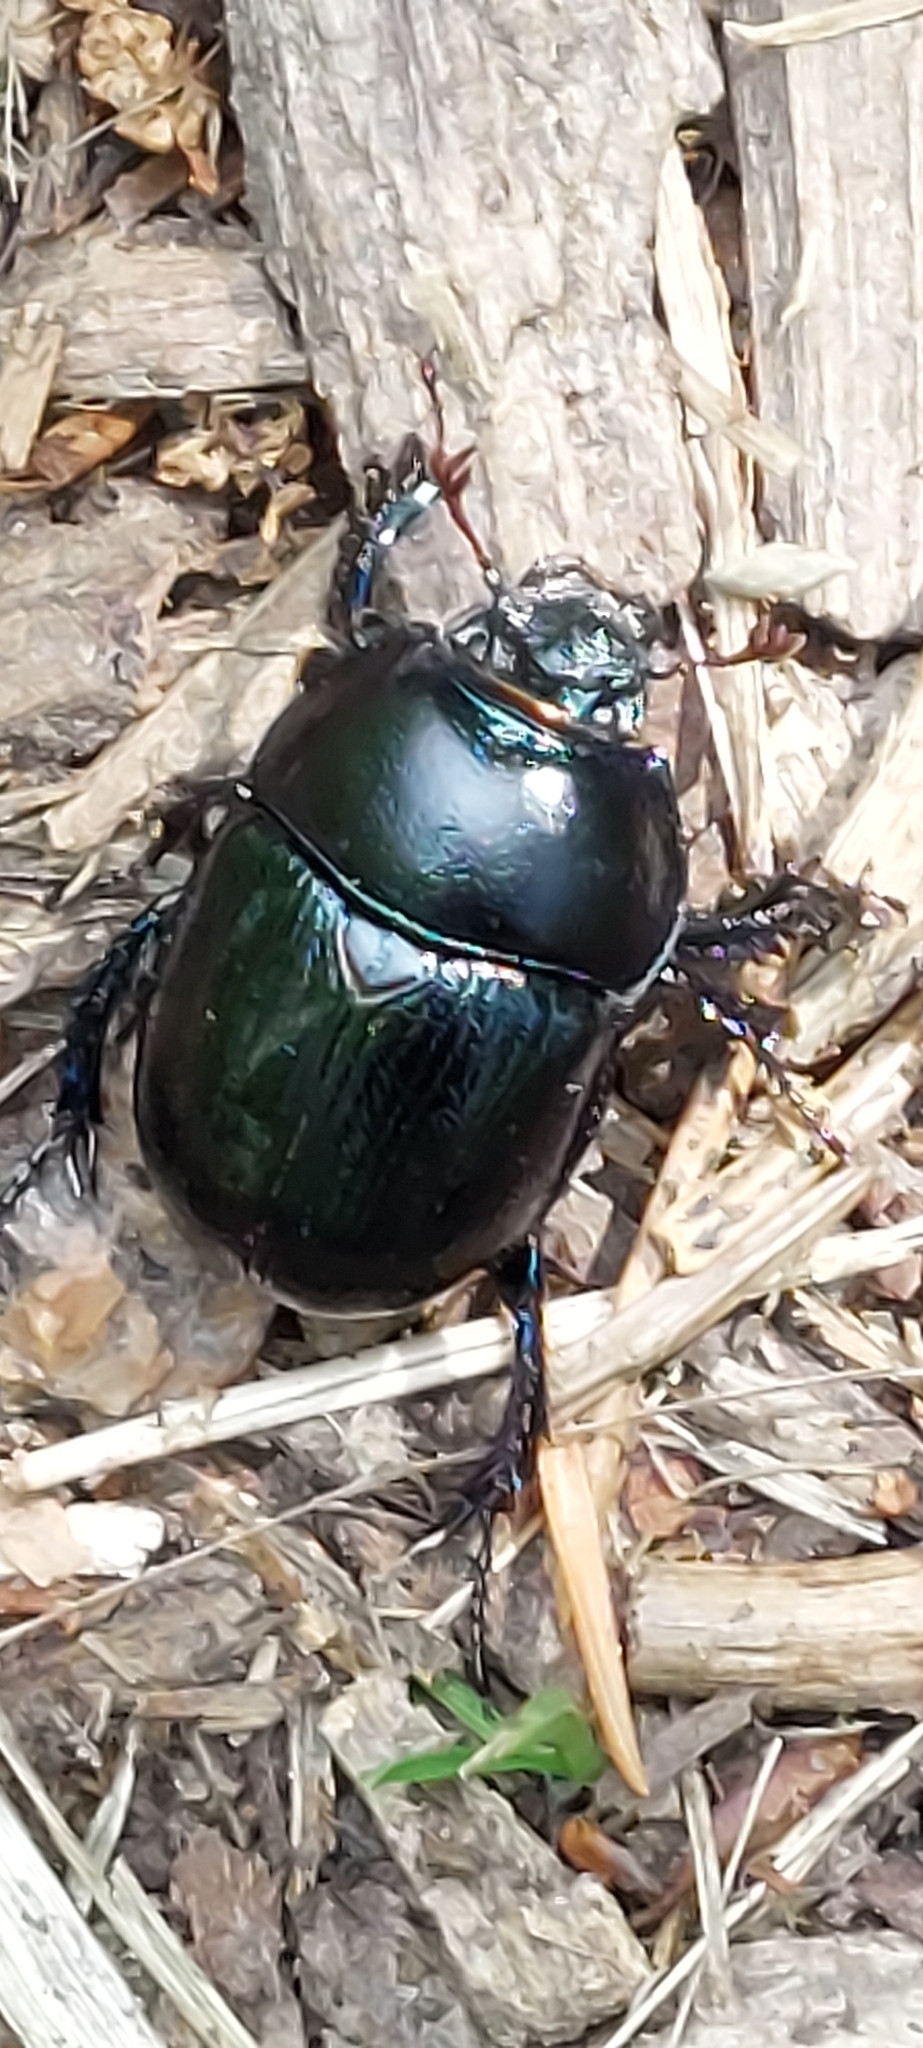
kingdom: Animalia
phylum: Arthropoda
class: Insecta
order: Coleoptera
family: Geotrupidae
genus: Anoplotrupes
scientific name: Anoplotrupes stercorosus
